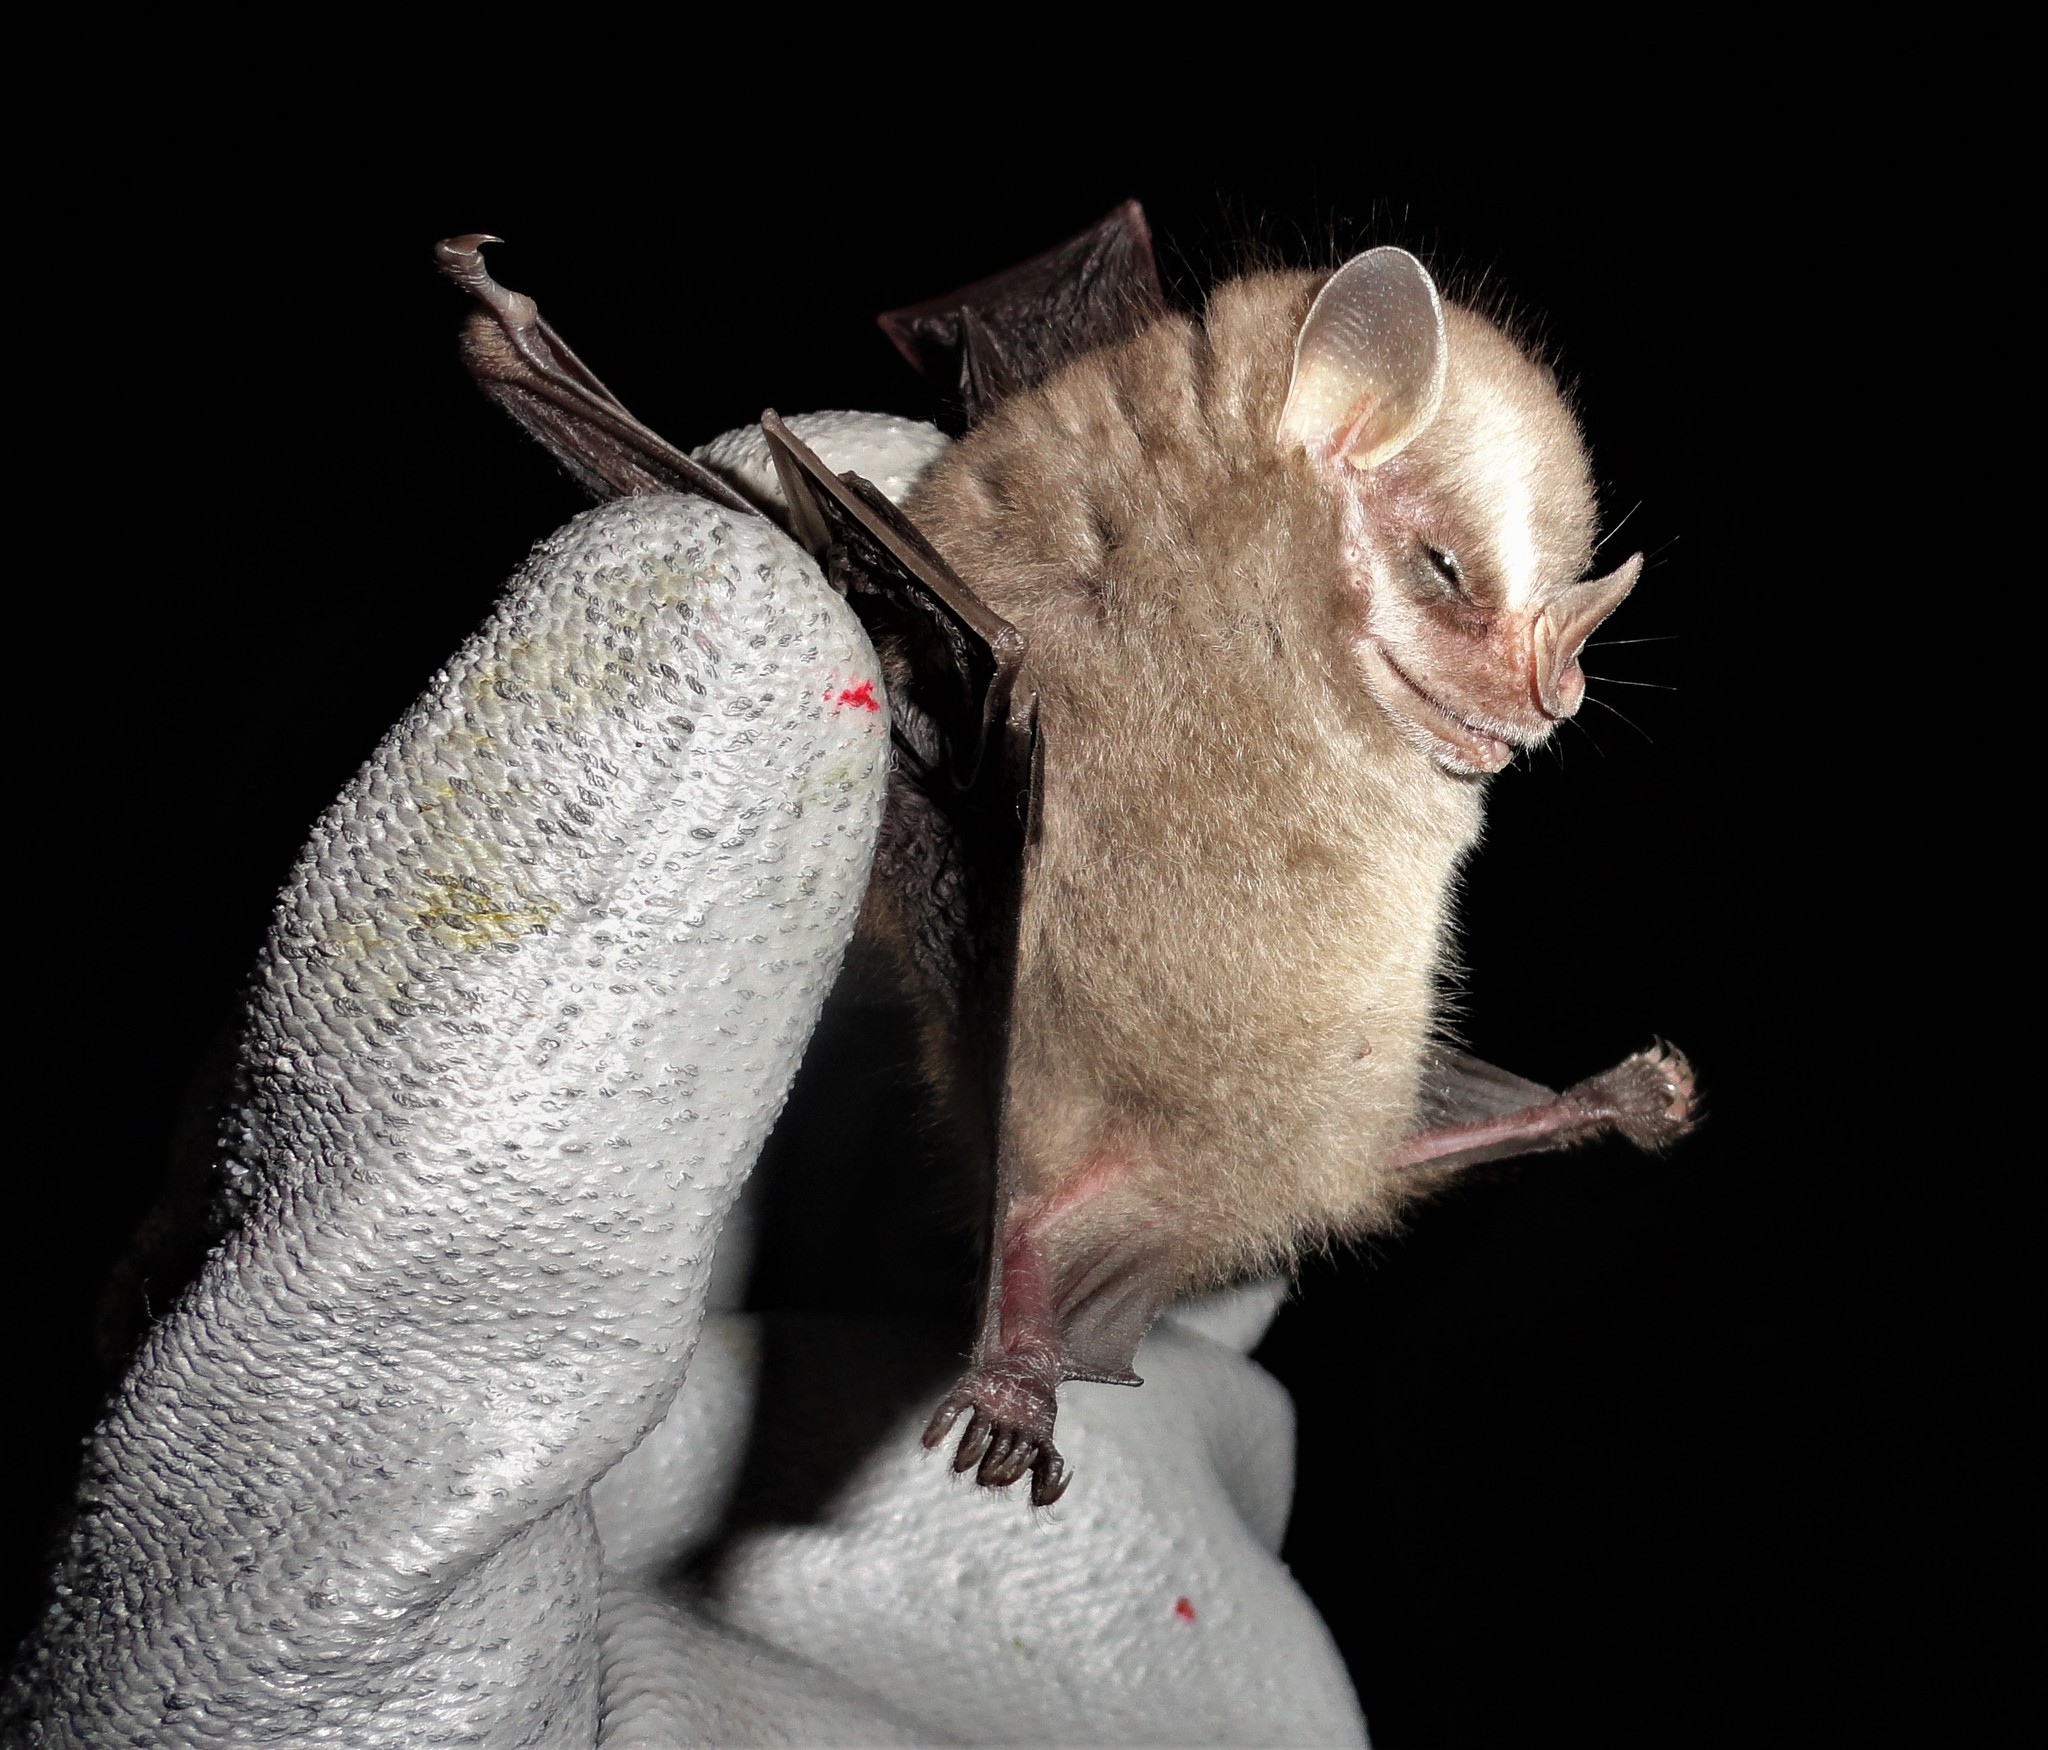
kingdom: Animalia
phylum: Chordata
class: Mammalia
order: Chiroptera
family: Phyllostomidae
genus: Vampyressa
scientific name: Vampyressa pusilla
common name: Southern little yellow-eared bat
